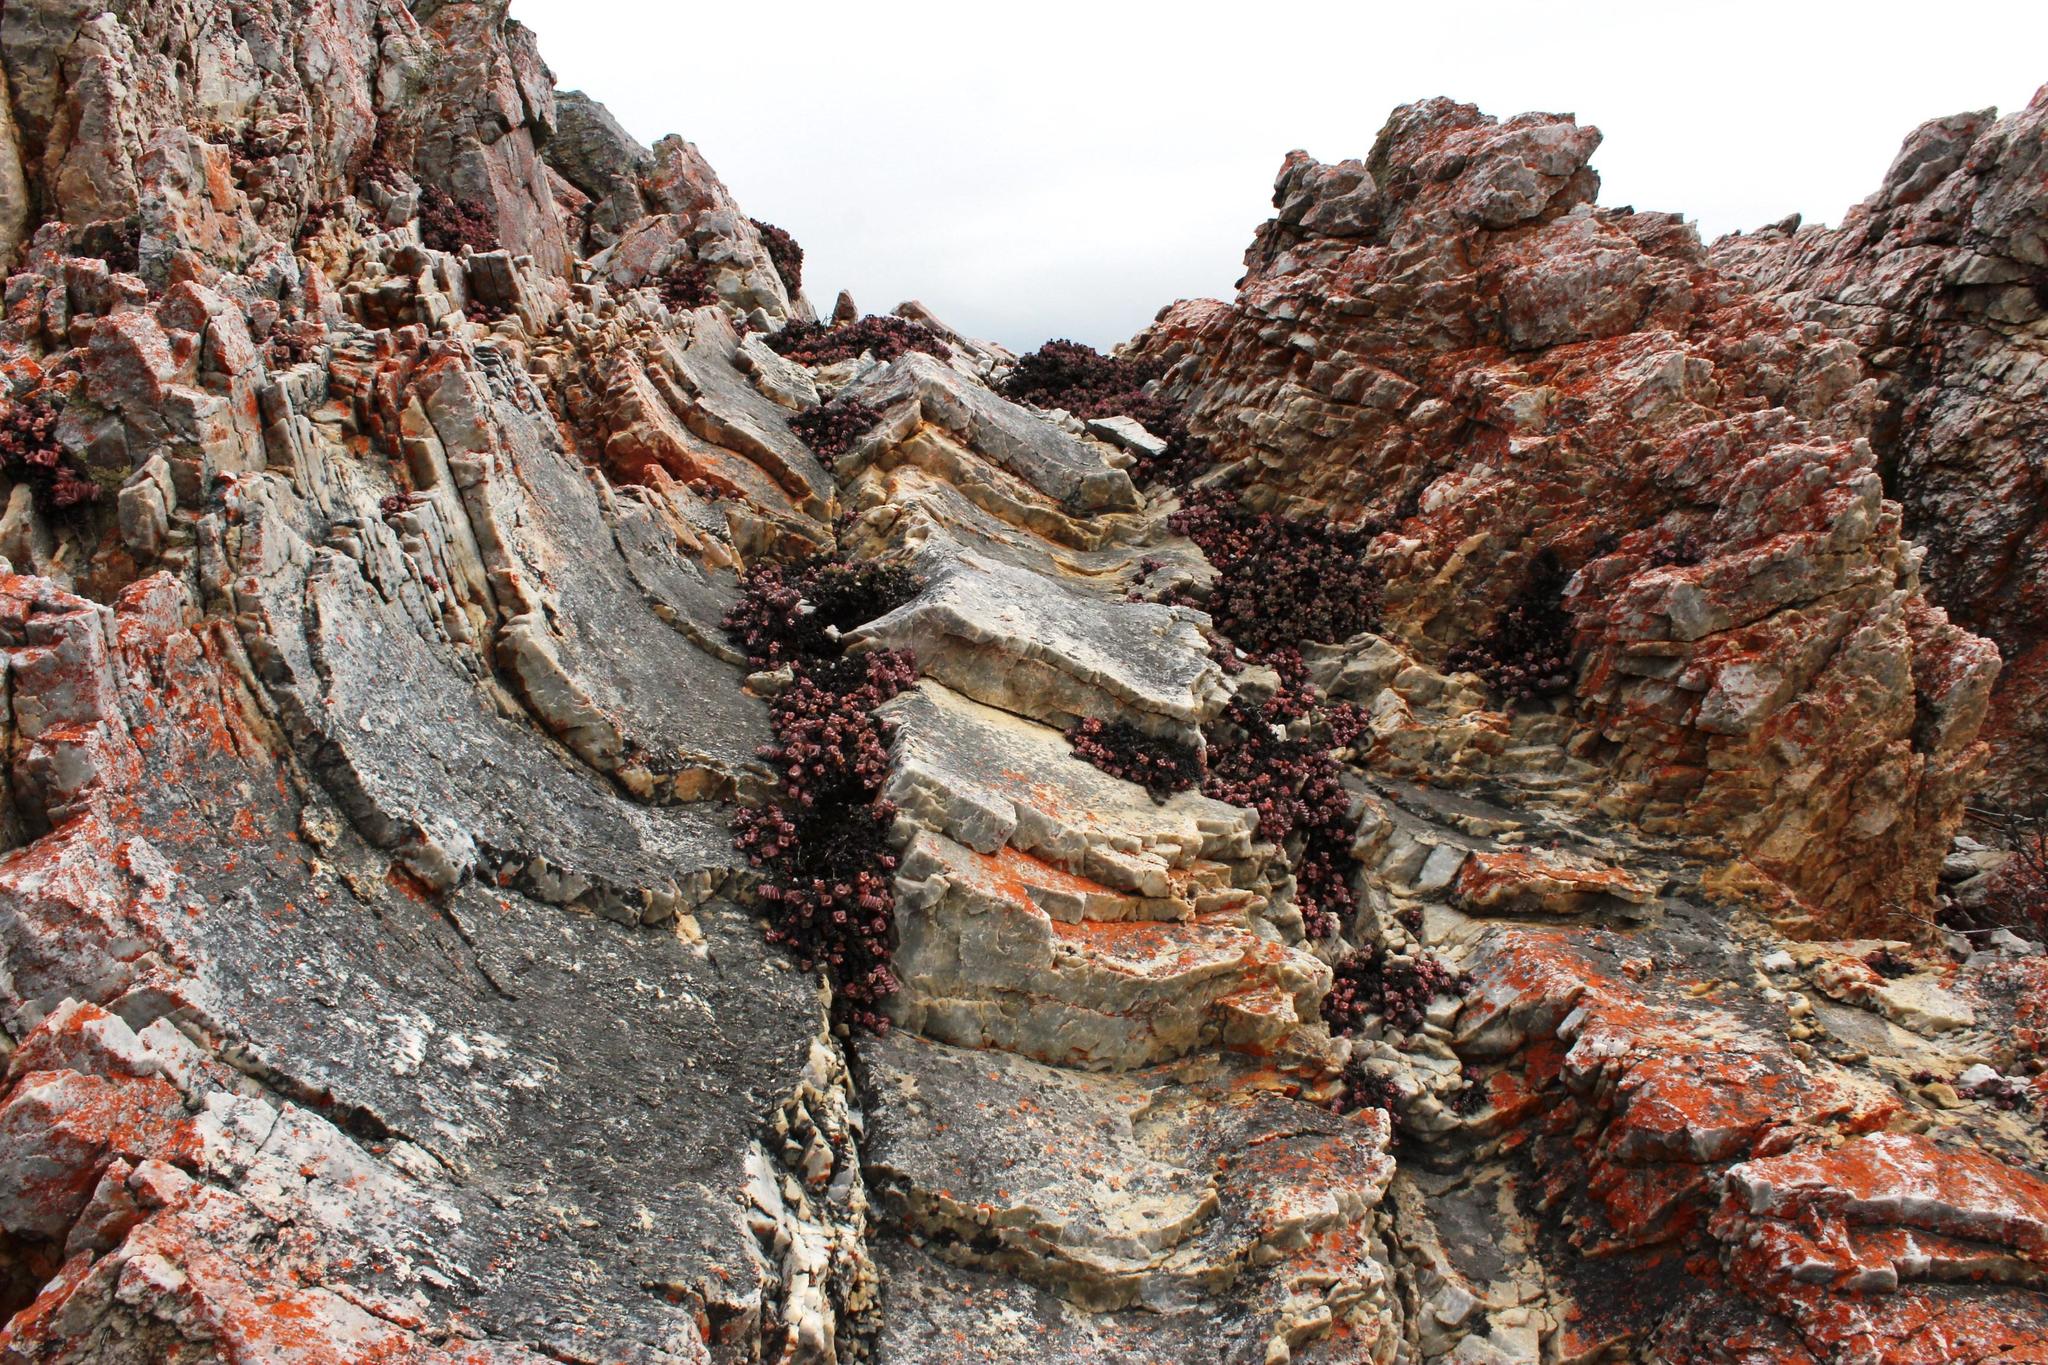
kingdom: Plantae
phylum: Tracheophyta
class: Magnoliopsida
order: Saxifragales
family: Crassulaceae
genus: Crassula
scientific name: Crassula rupestris
